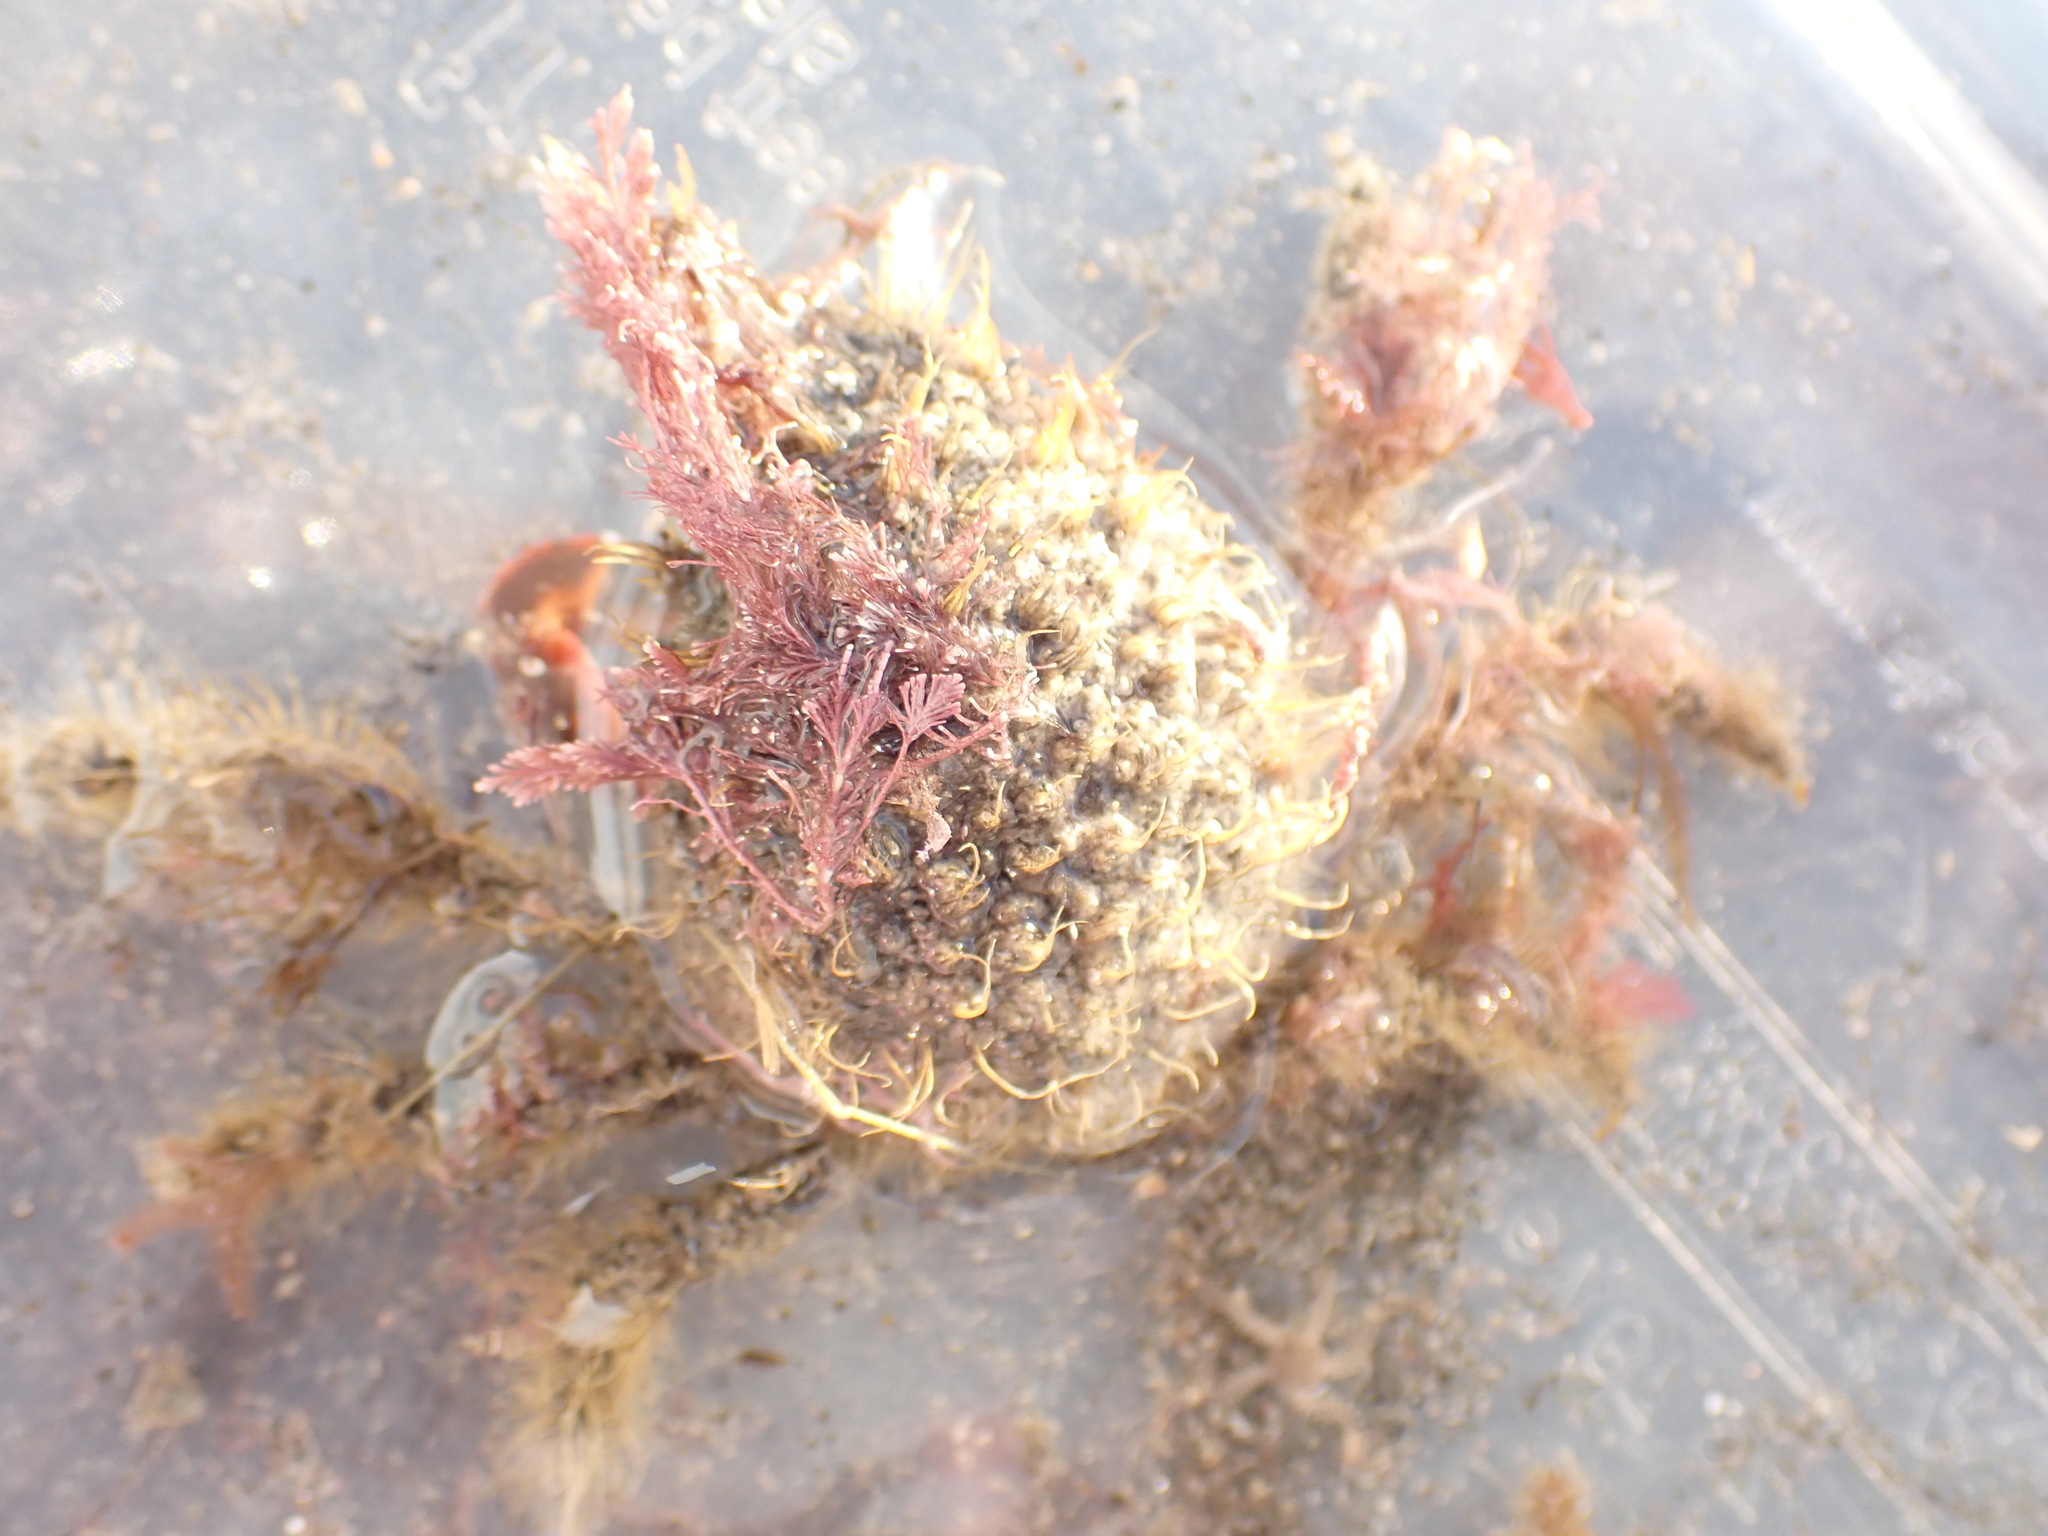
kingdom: Animalia
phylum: Arthropoda
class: Malacostraca
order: Decapoda
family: Majidae
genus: Notomithrax
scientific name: Notomithrax ursus
